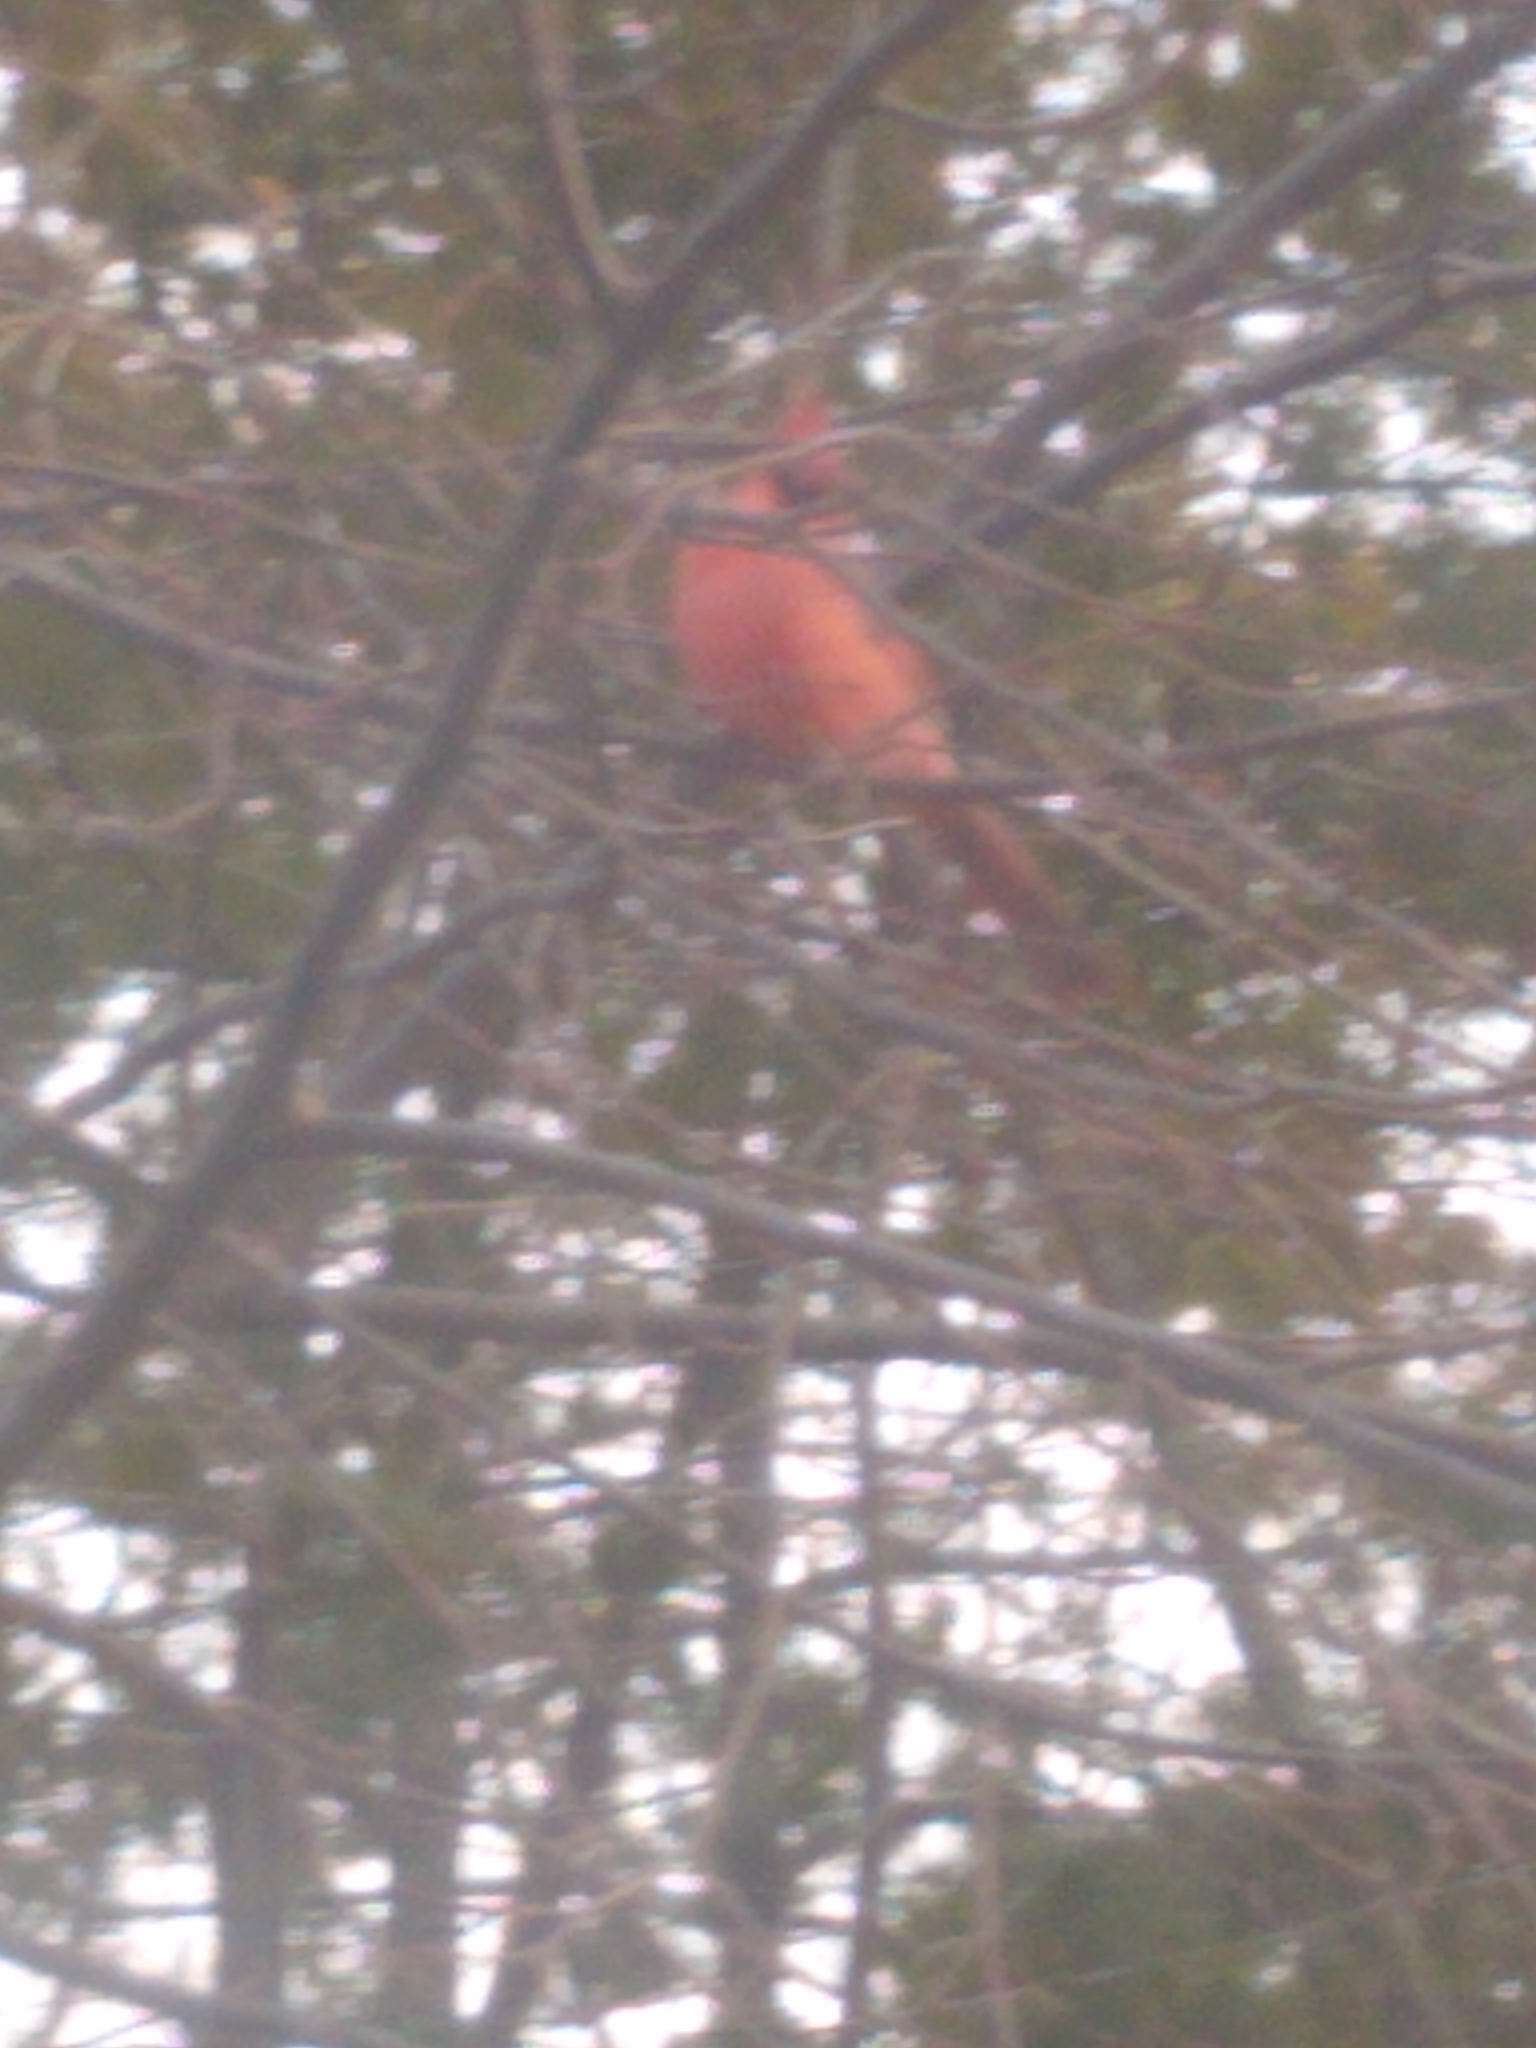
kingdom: Animalia
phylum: Chordata
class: Aves
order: Passeriformes
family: Cardinalidae
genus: Cardinalis
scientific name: Cardinalis cardinalis
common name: Northern cardinal
